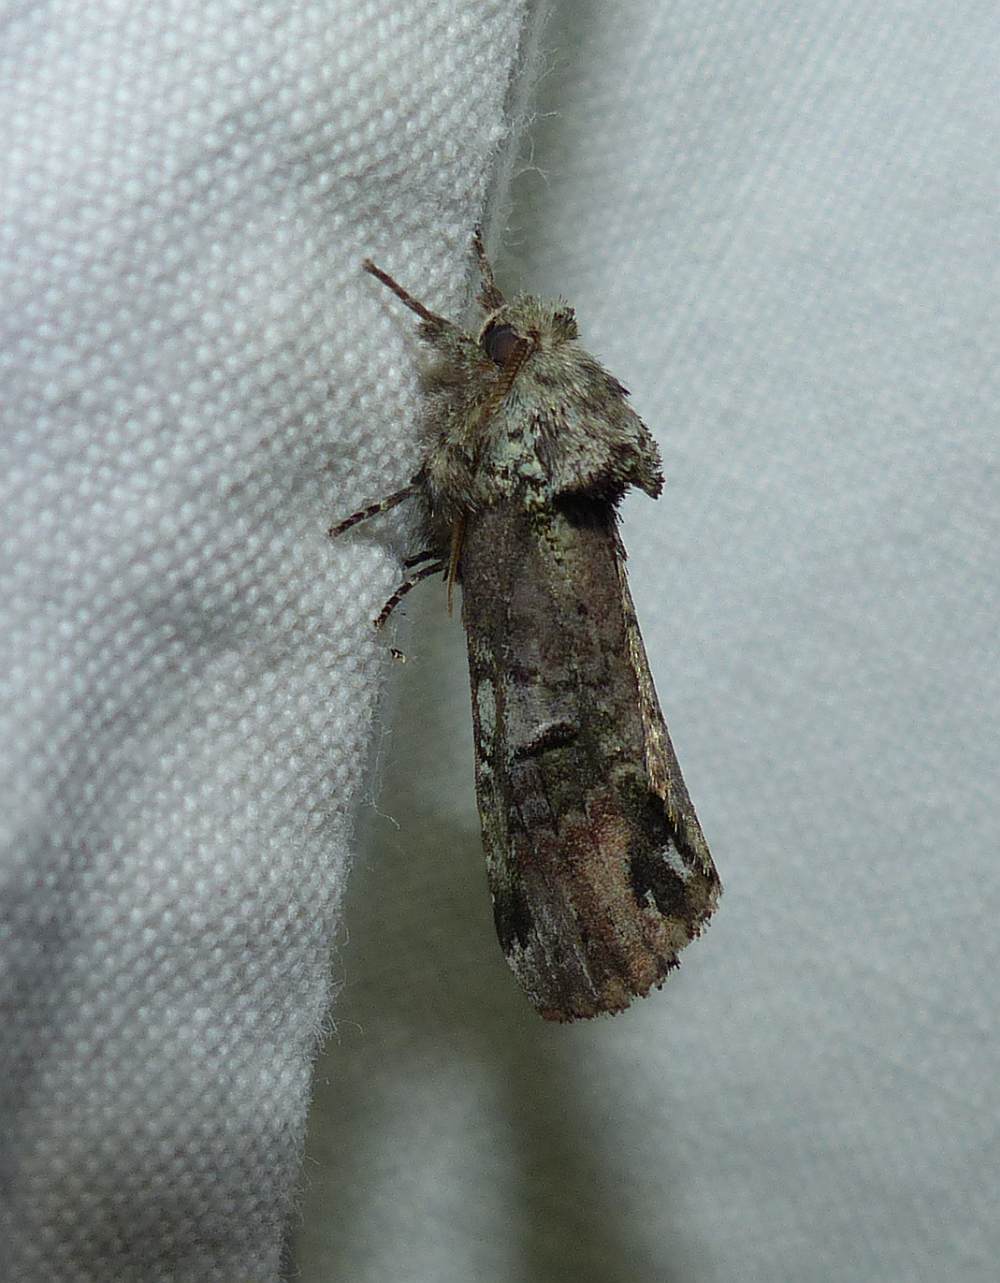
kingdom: Animalia
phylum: Arthropoda
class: Insecta
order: Lepidoptera
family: Notodontidae
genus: Schizura
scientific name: Schizura
